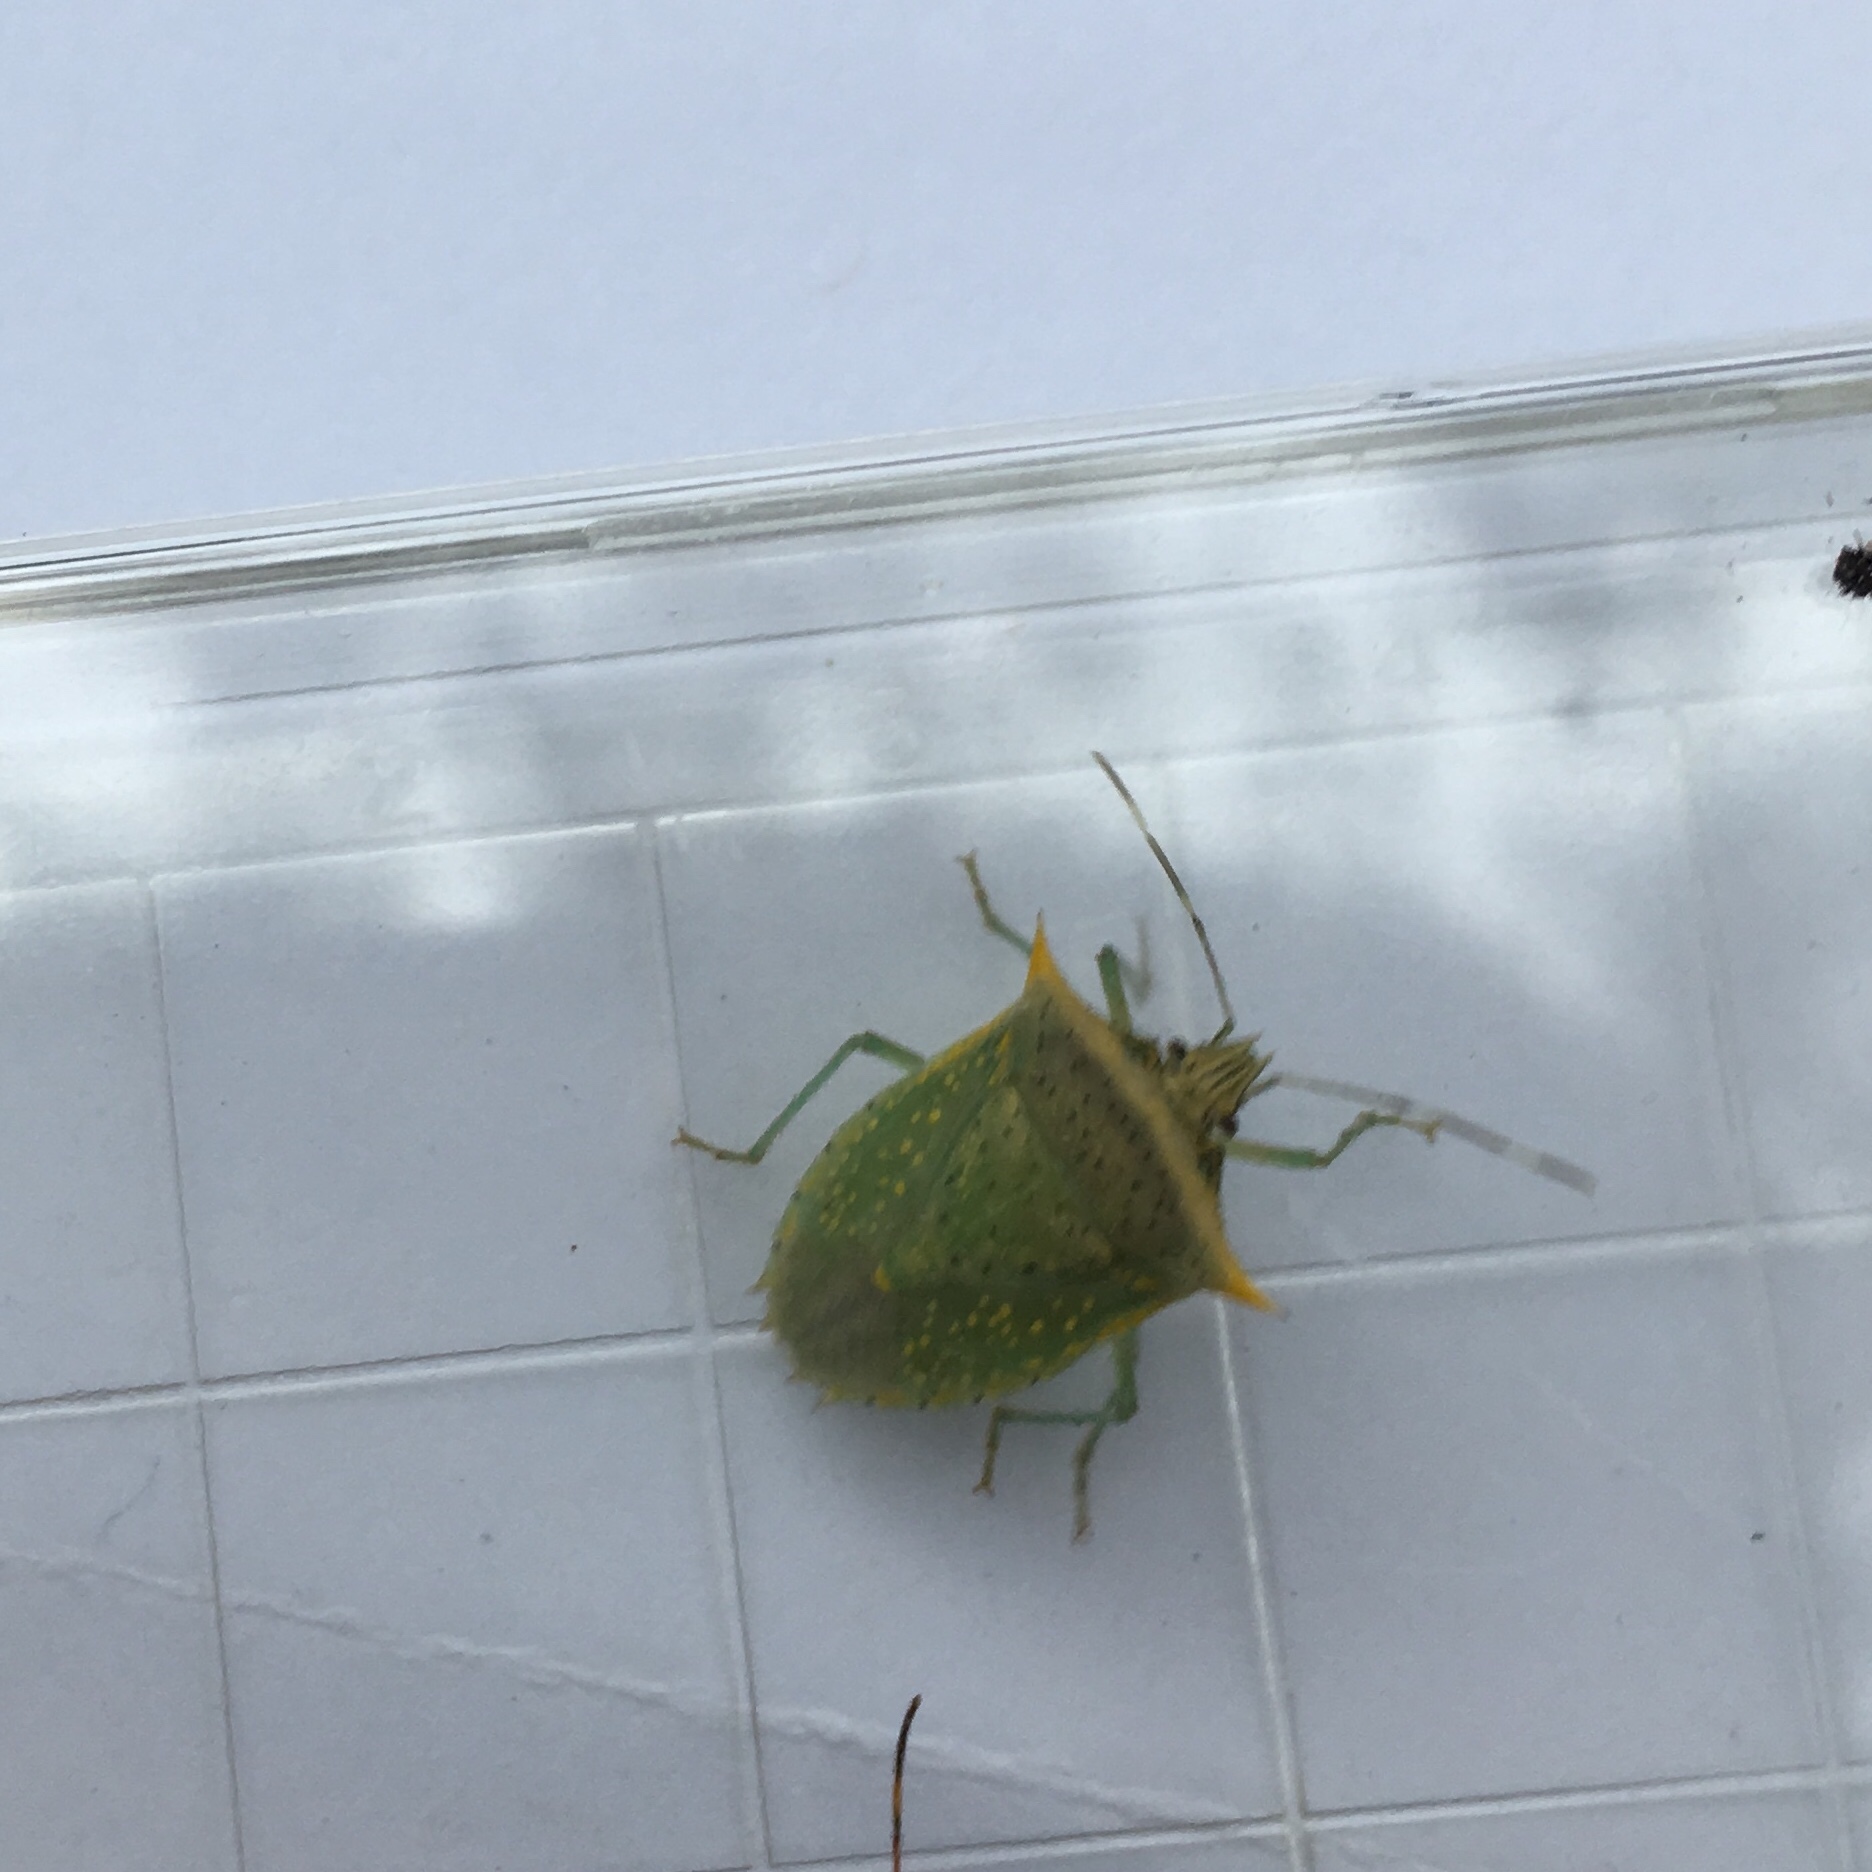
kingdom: Animalia
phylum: Arthropoda
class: Insecta
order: Hemiptera
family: Pentatomidae
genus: Arvelius
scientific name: Arvelius albopunctatus
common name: Tomato stink bug
